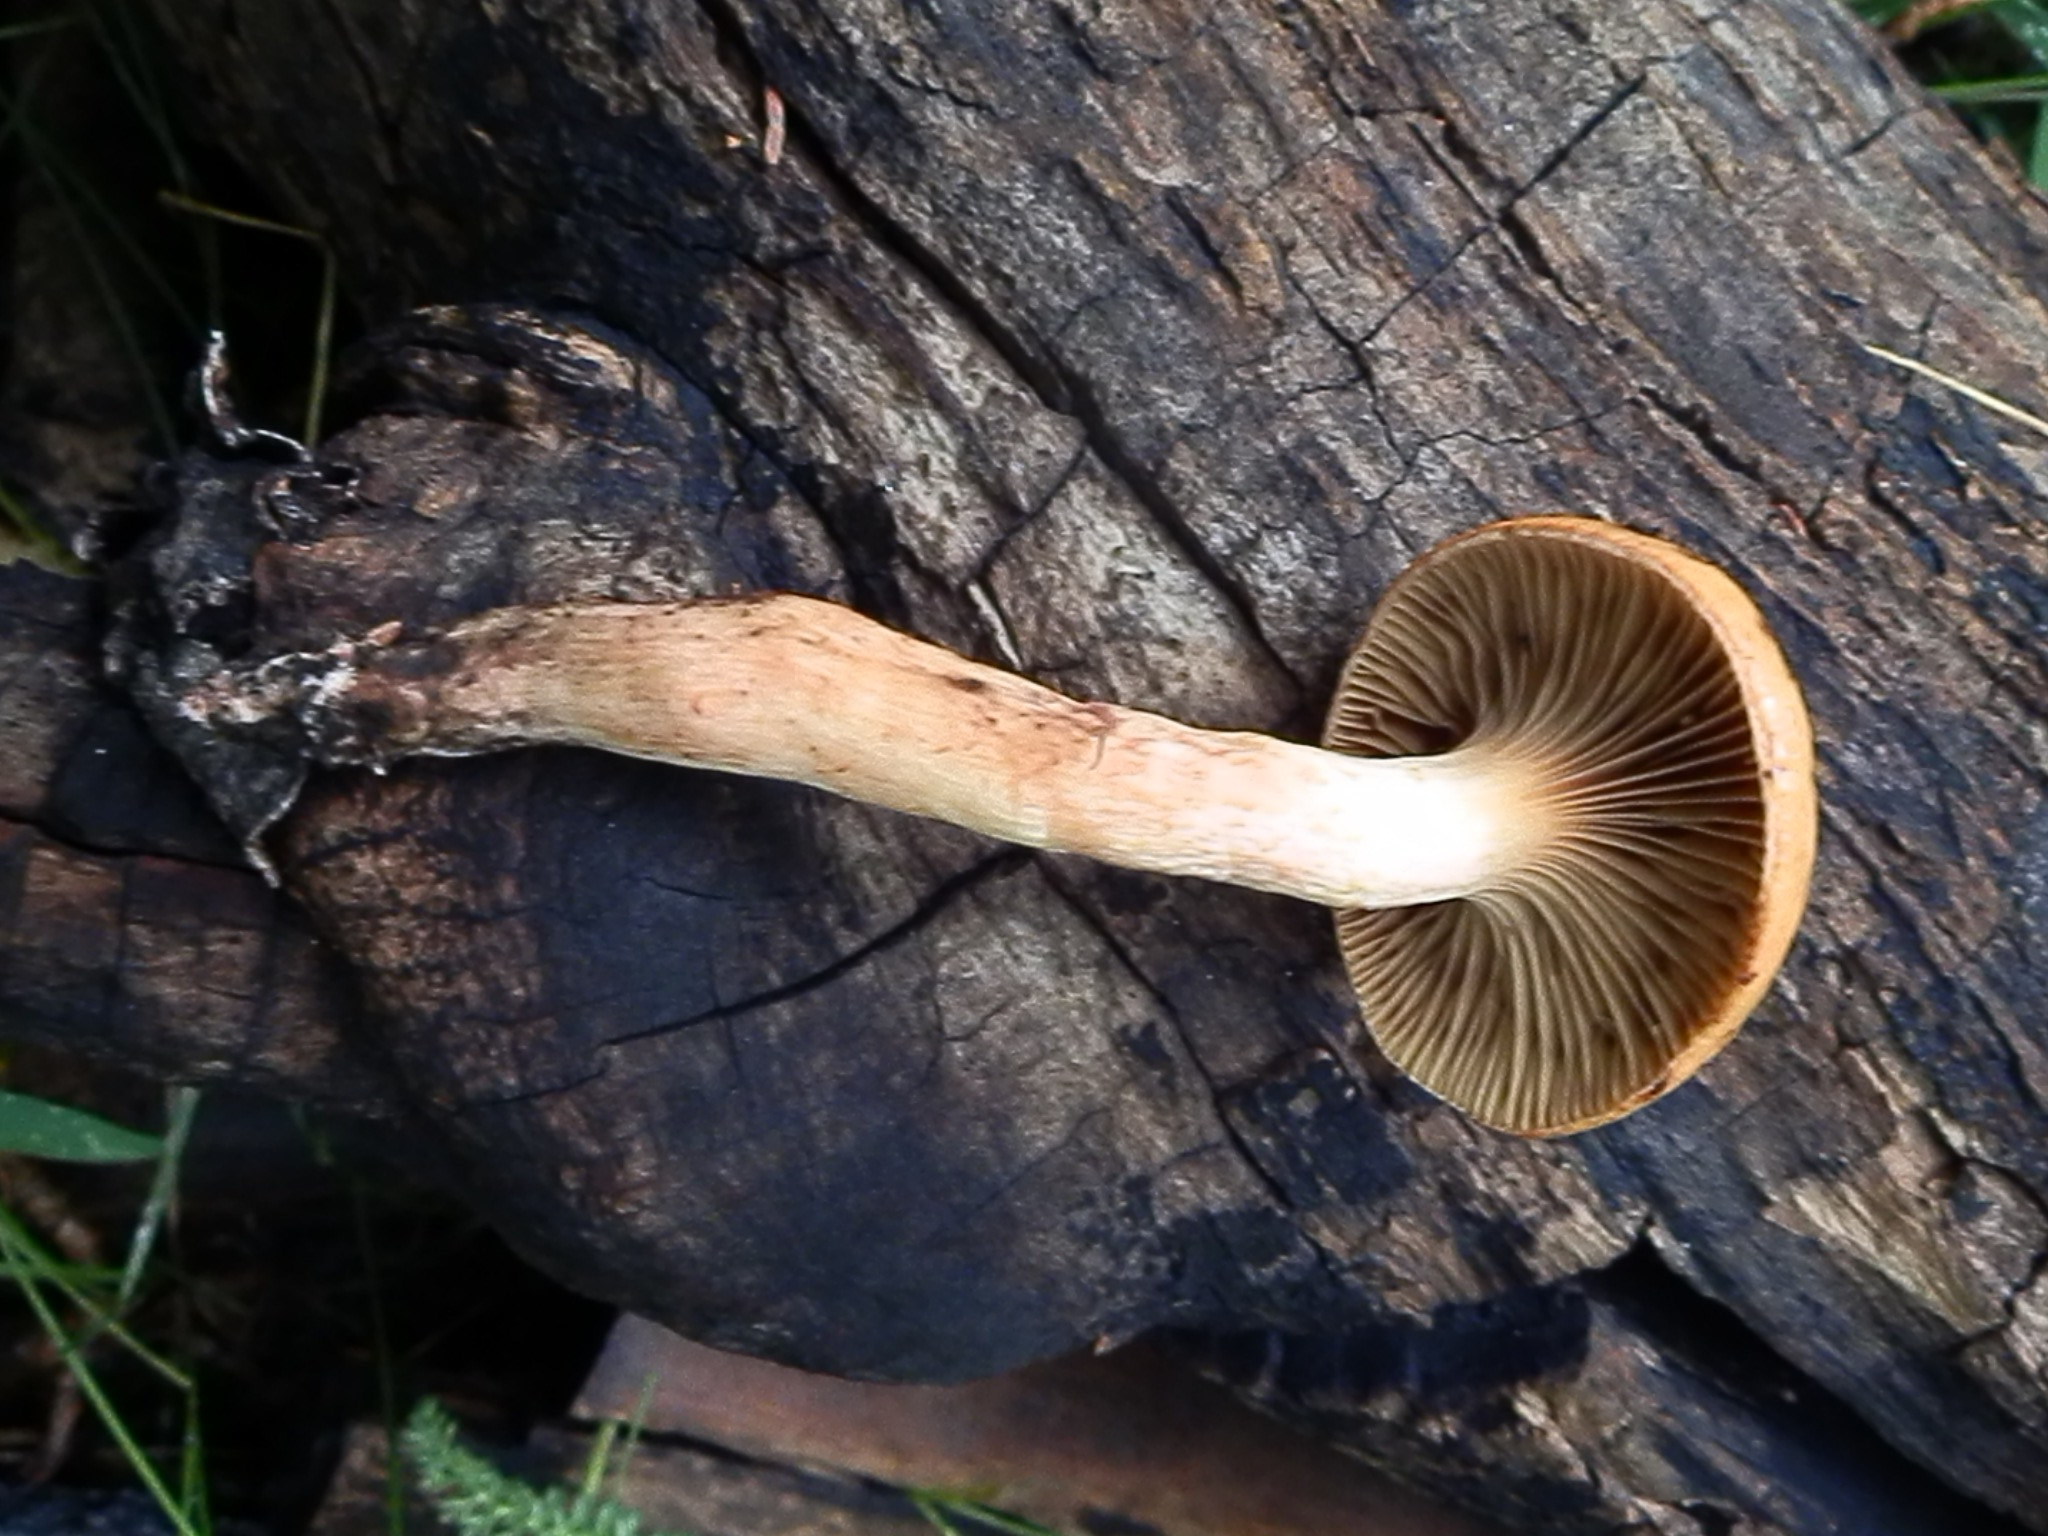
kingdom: Fungi
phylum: Basidiomycota
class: Agaricomycetes
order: Boletales
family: Gomphidiaceae
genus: Chroogomphus
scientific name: Chroogomphus vinicolor
